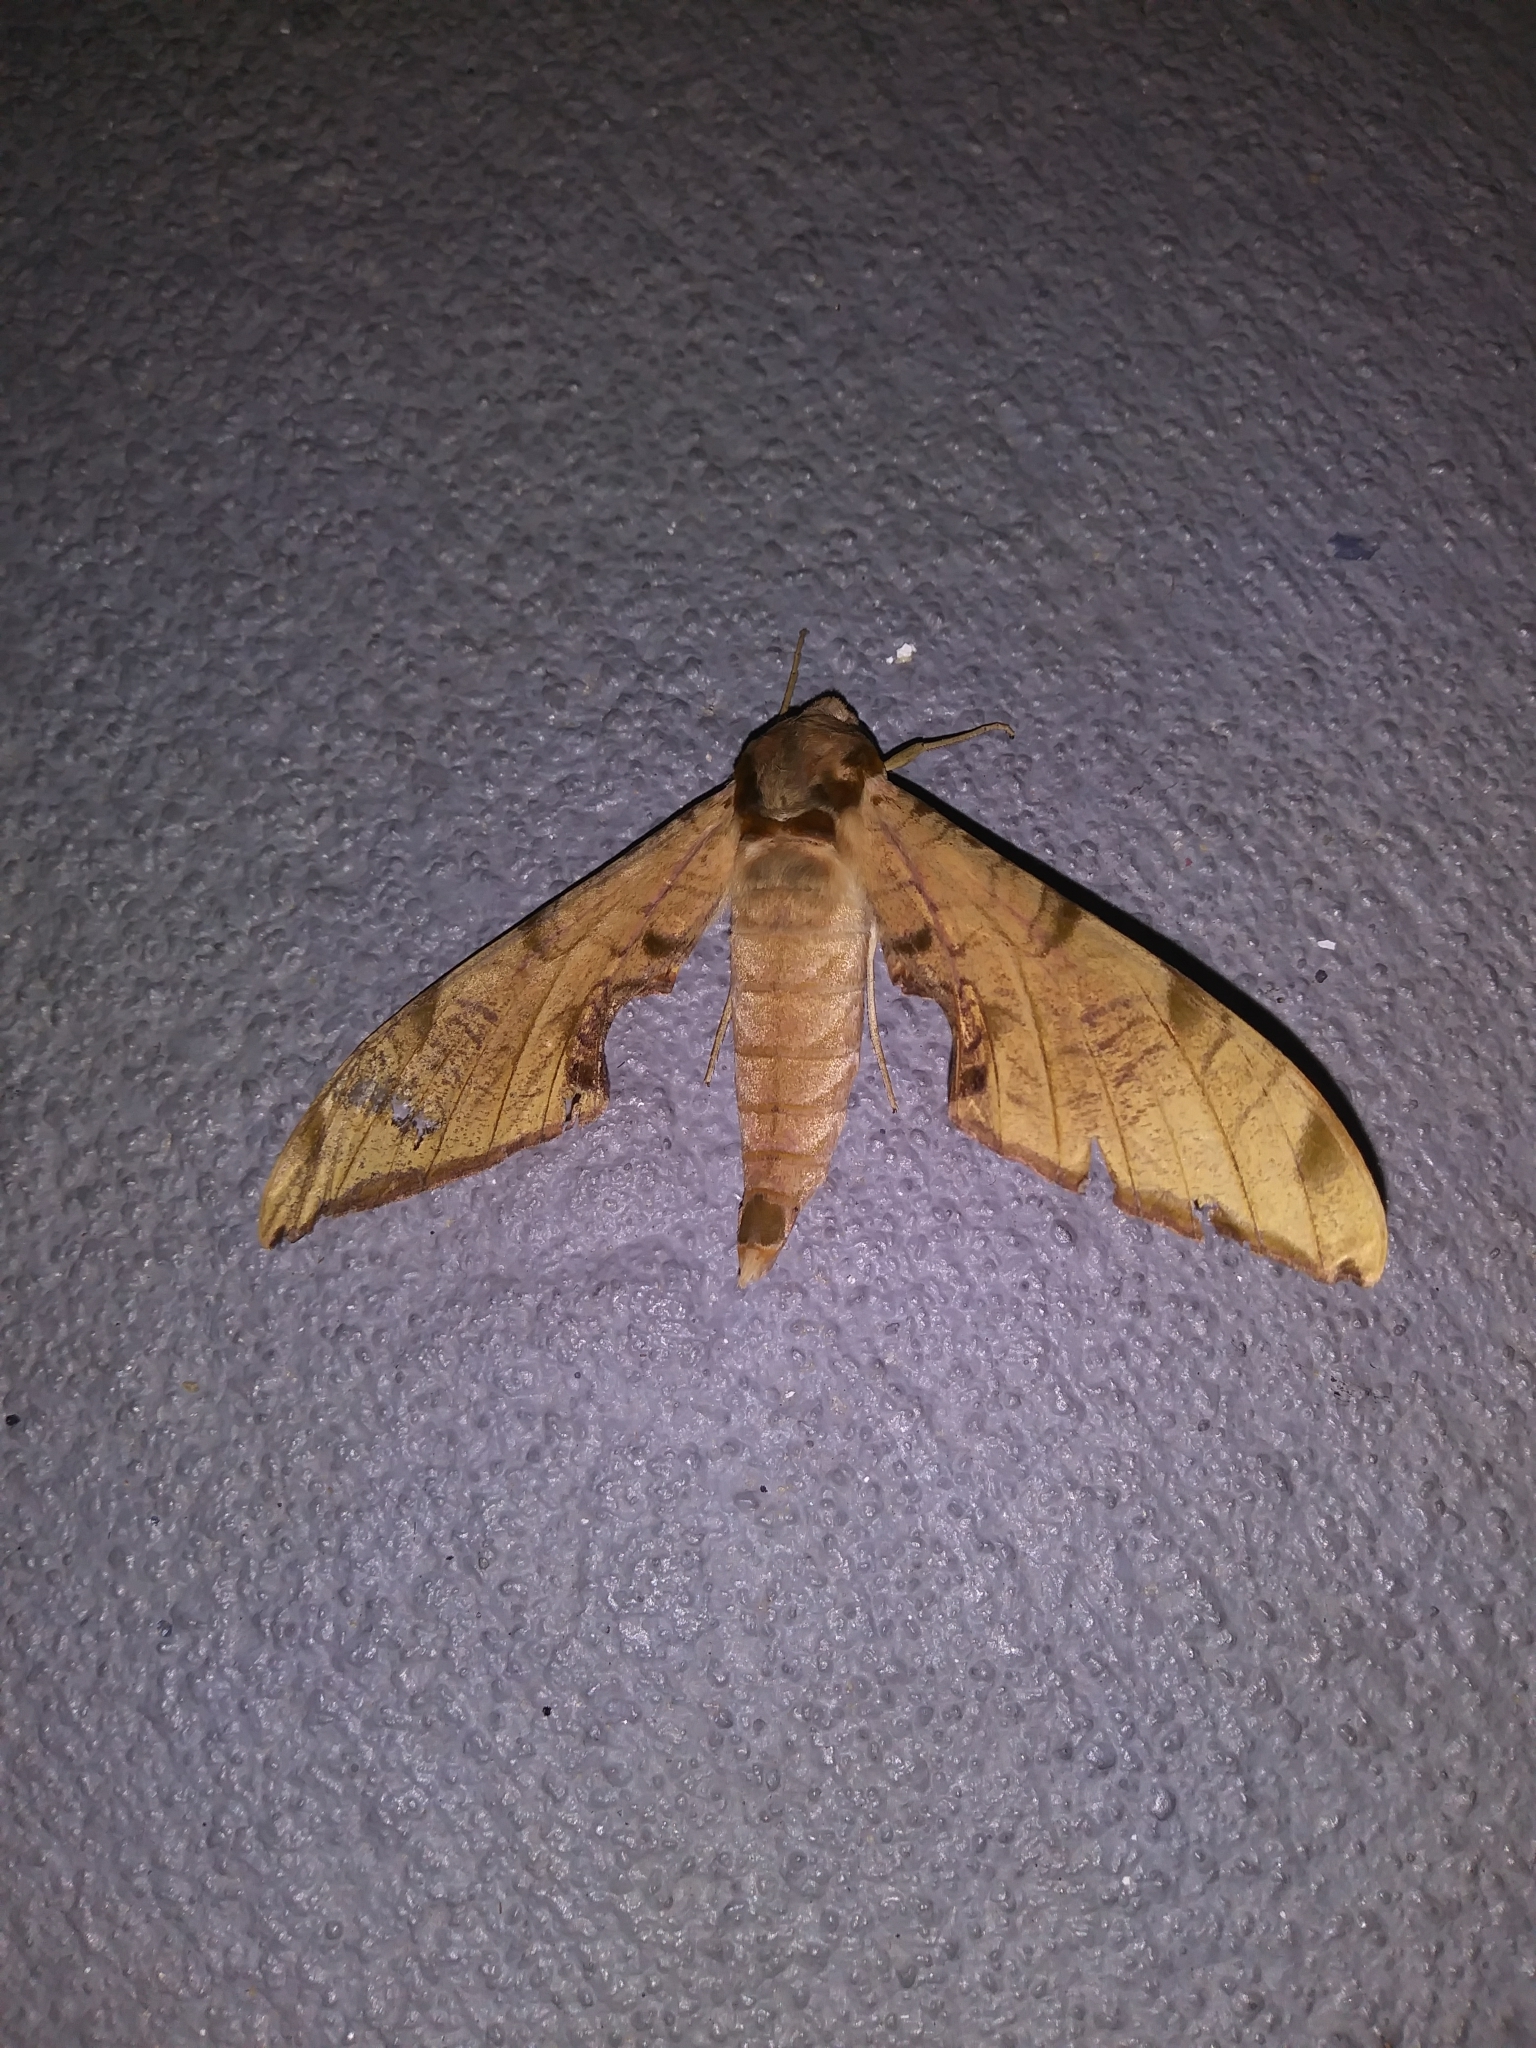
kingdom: Animalia
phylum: Arthropoda
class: Insecta
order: Lepidoptera
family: Sphingidae
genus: Protambulyx
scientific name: Protambulyx strigilis
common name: Streaked sphinx
